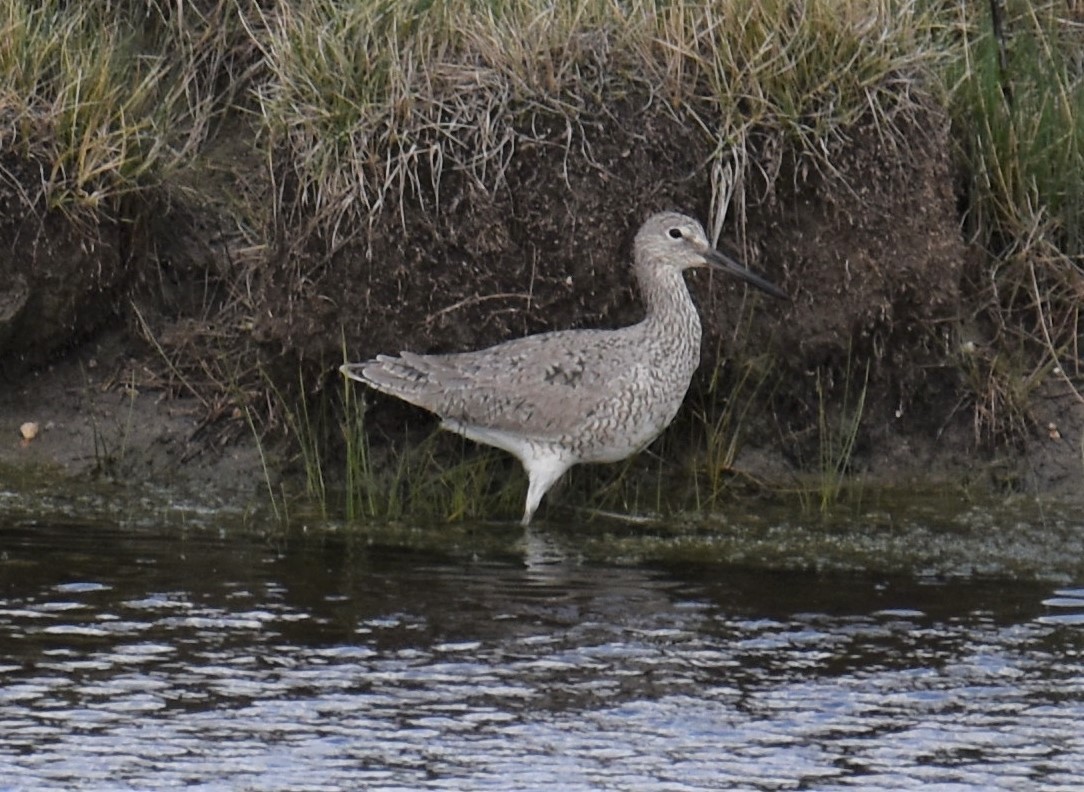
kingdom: Animalia
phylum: Chordata
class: Aves
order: Charadriiformes
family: Scolopacidae
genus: Tringa
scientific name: Tringa semipalmata
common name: Willet
